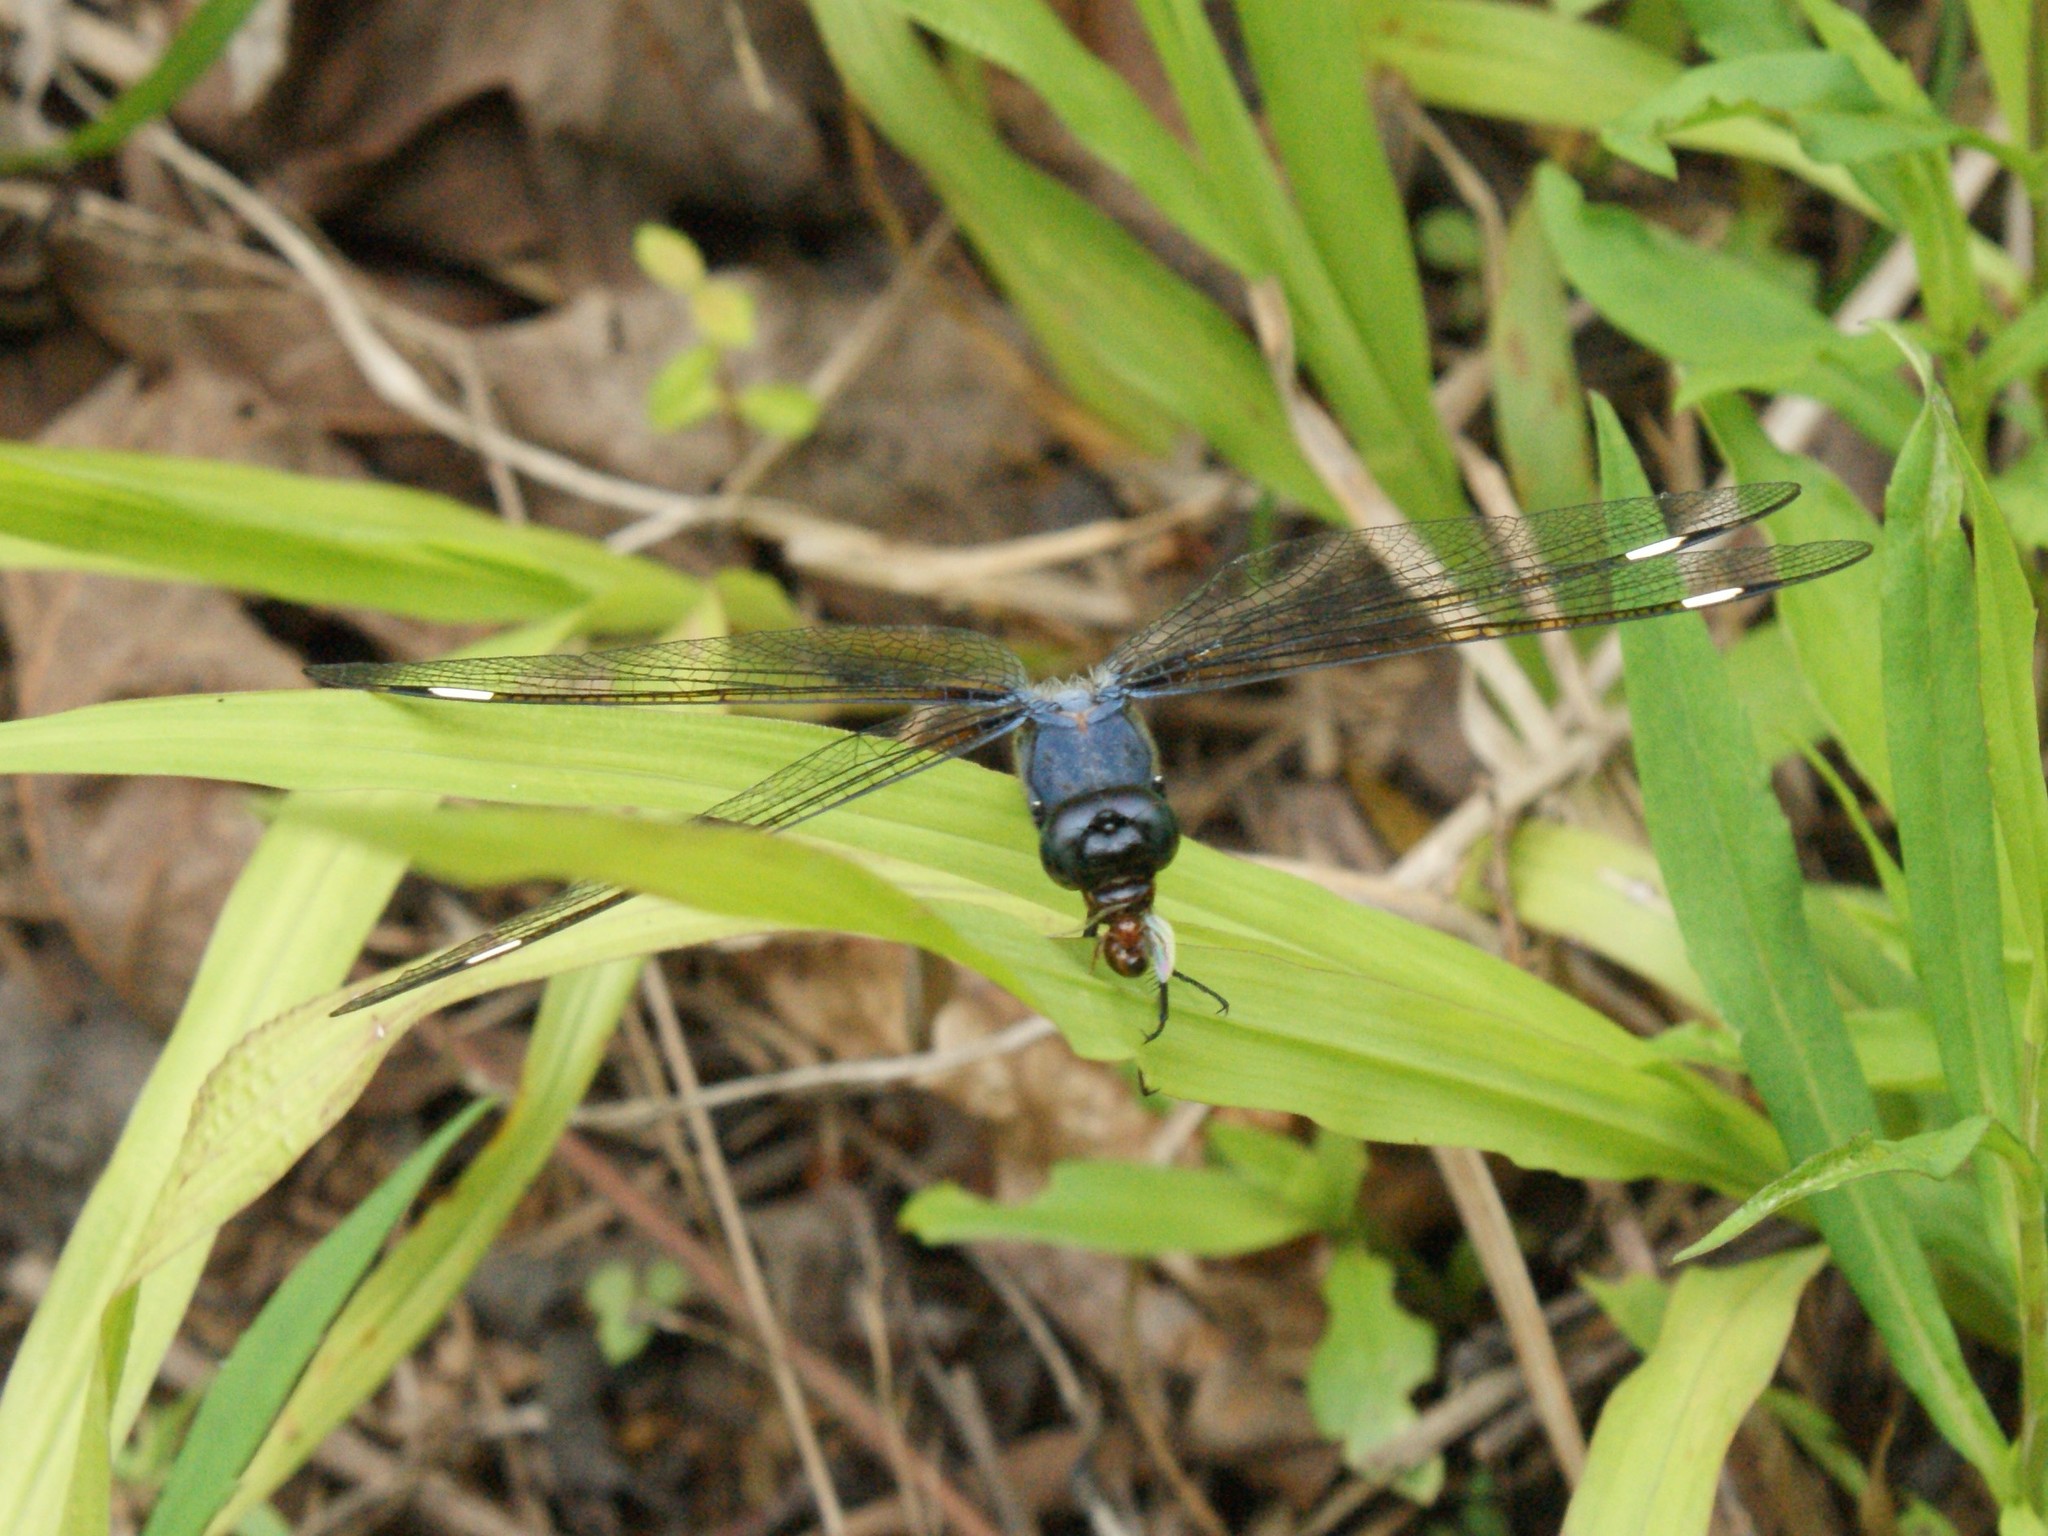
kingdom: Animalia
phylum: Arthropoda
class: Insecta
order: Odonata
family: Libellulidae
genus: Libellula
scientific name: Libellula cyanea
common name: Spangled skimmer
